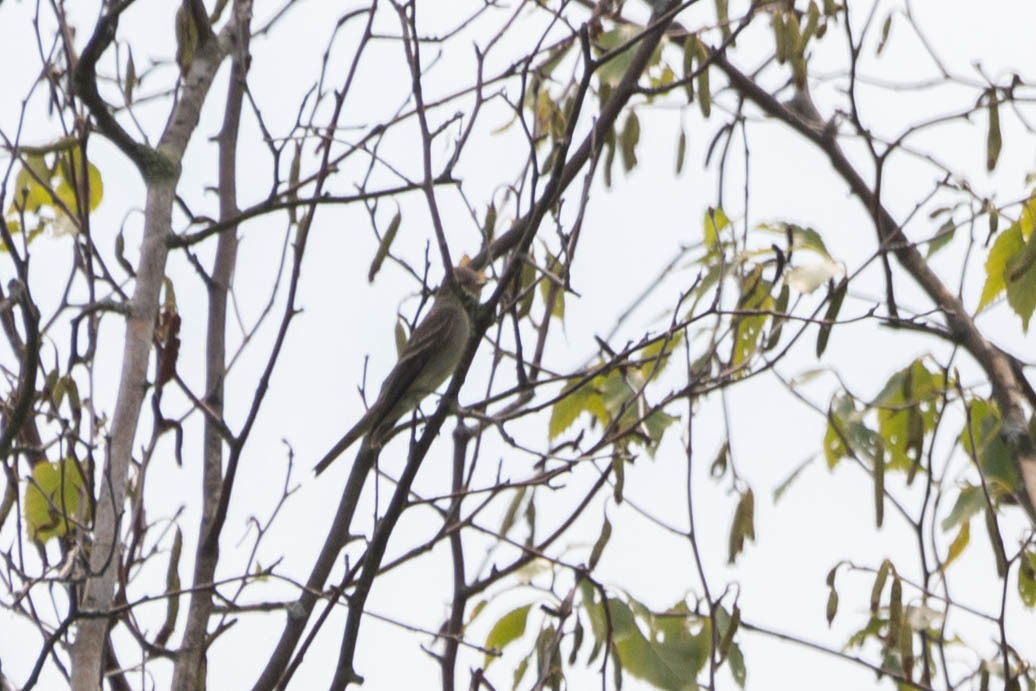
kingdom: Animalia
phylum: Chordata
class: Aves
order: Passeriformes
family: Tyrannidae
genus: Contopus
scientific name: Contopus virens
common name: Eastern wood-pewee
